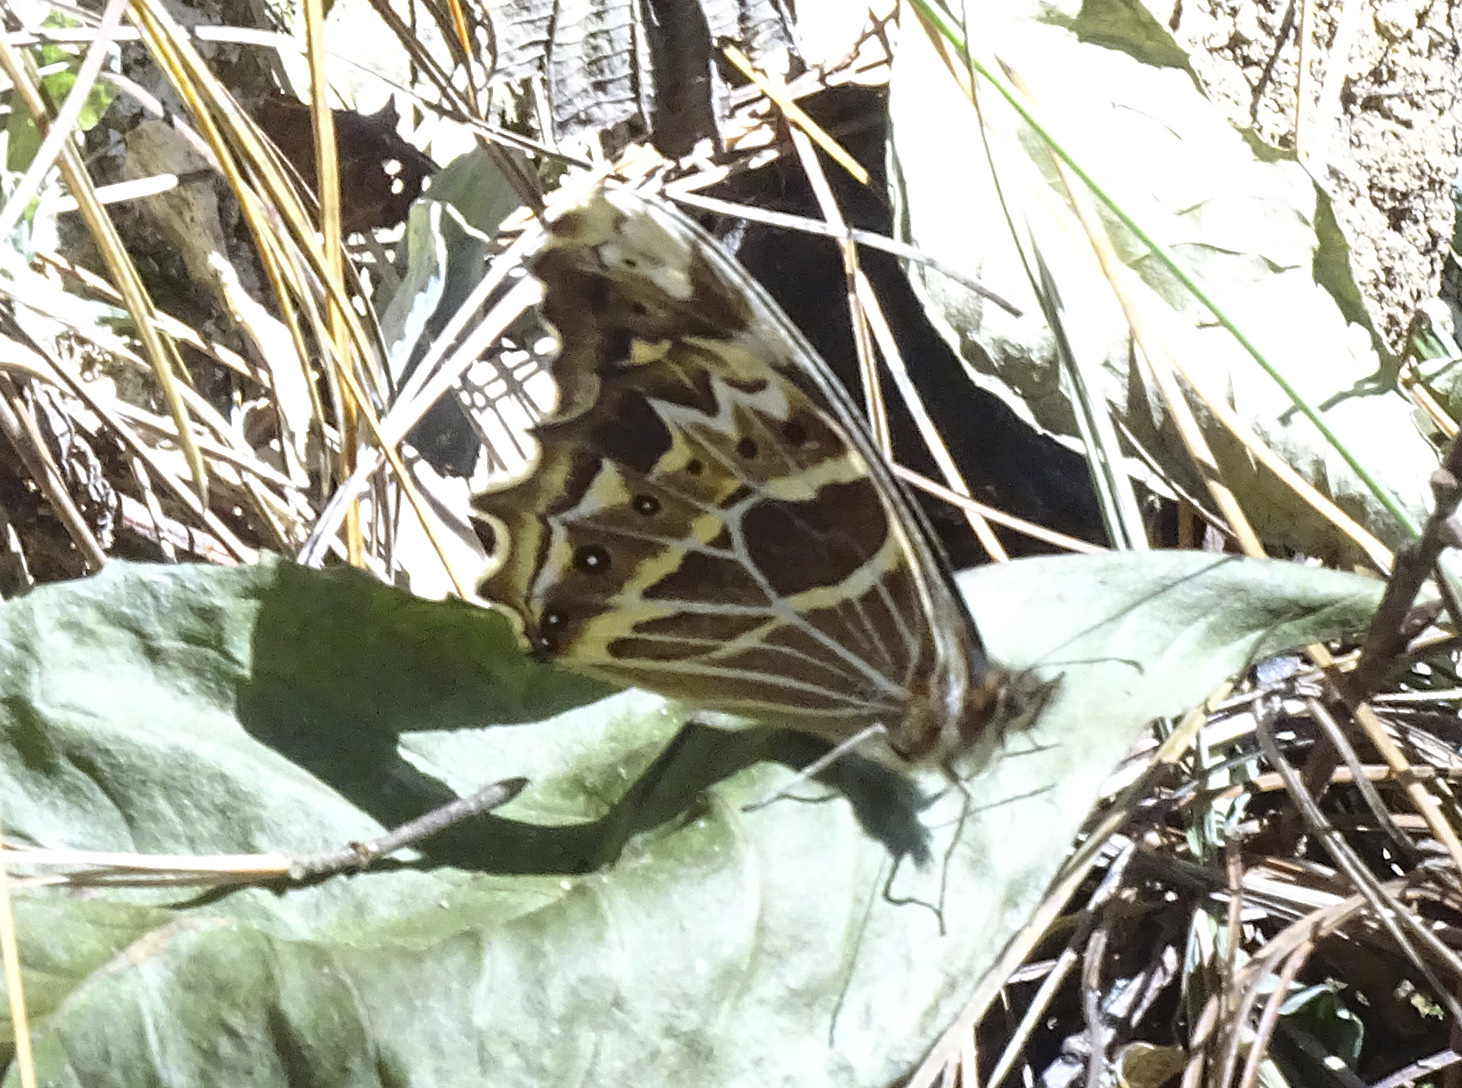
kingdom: Animalia
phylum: Arthropoda
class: Insecta
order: Lepidoptera
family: Nymphalidae
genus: Oxeoschistus
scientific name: Oxeoschistus tauropolis
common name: Starred oxeo
